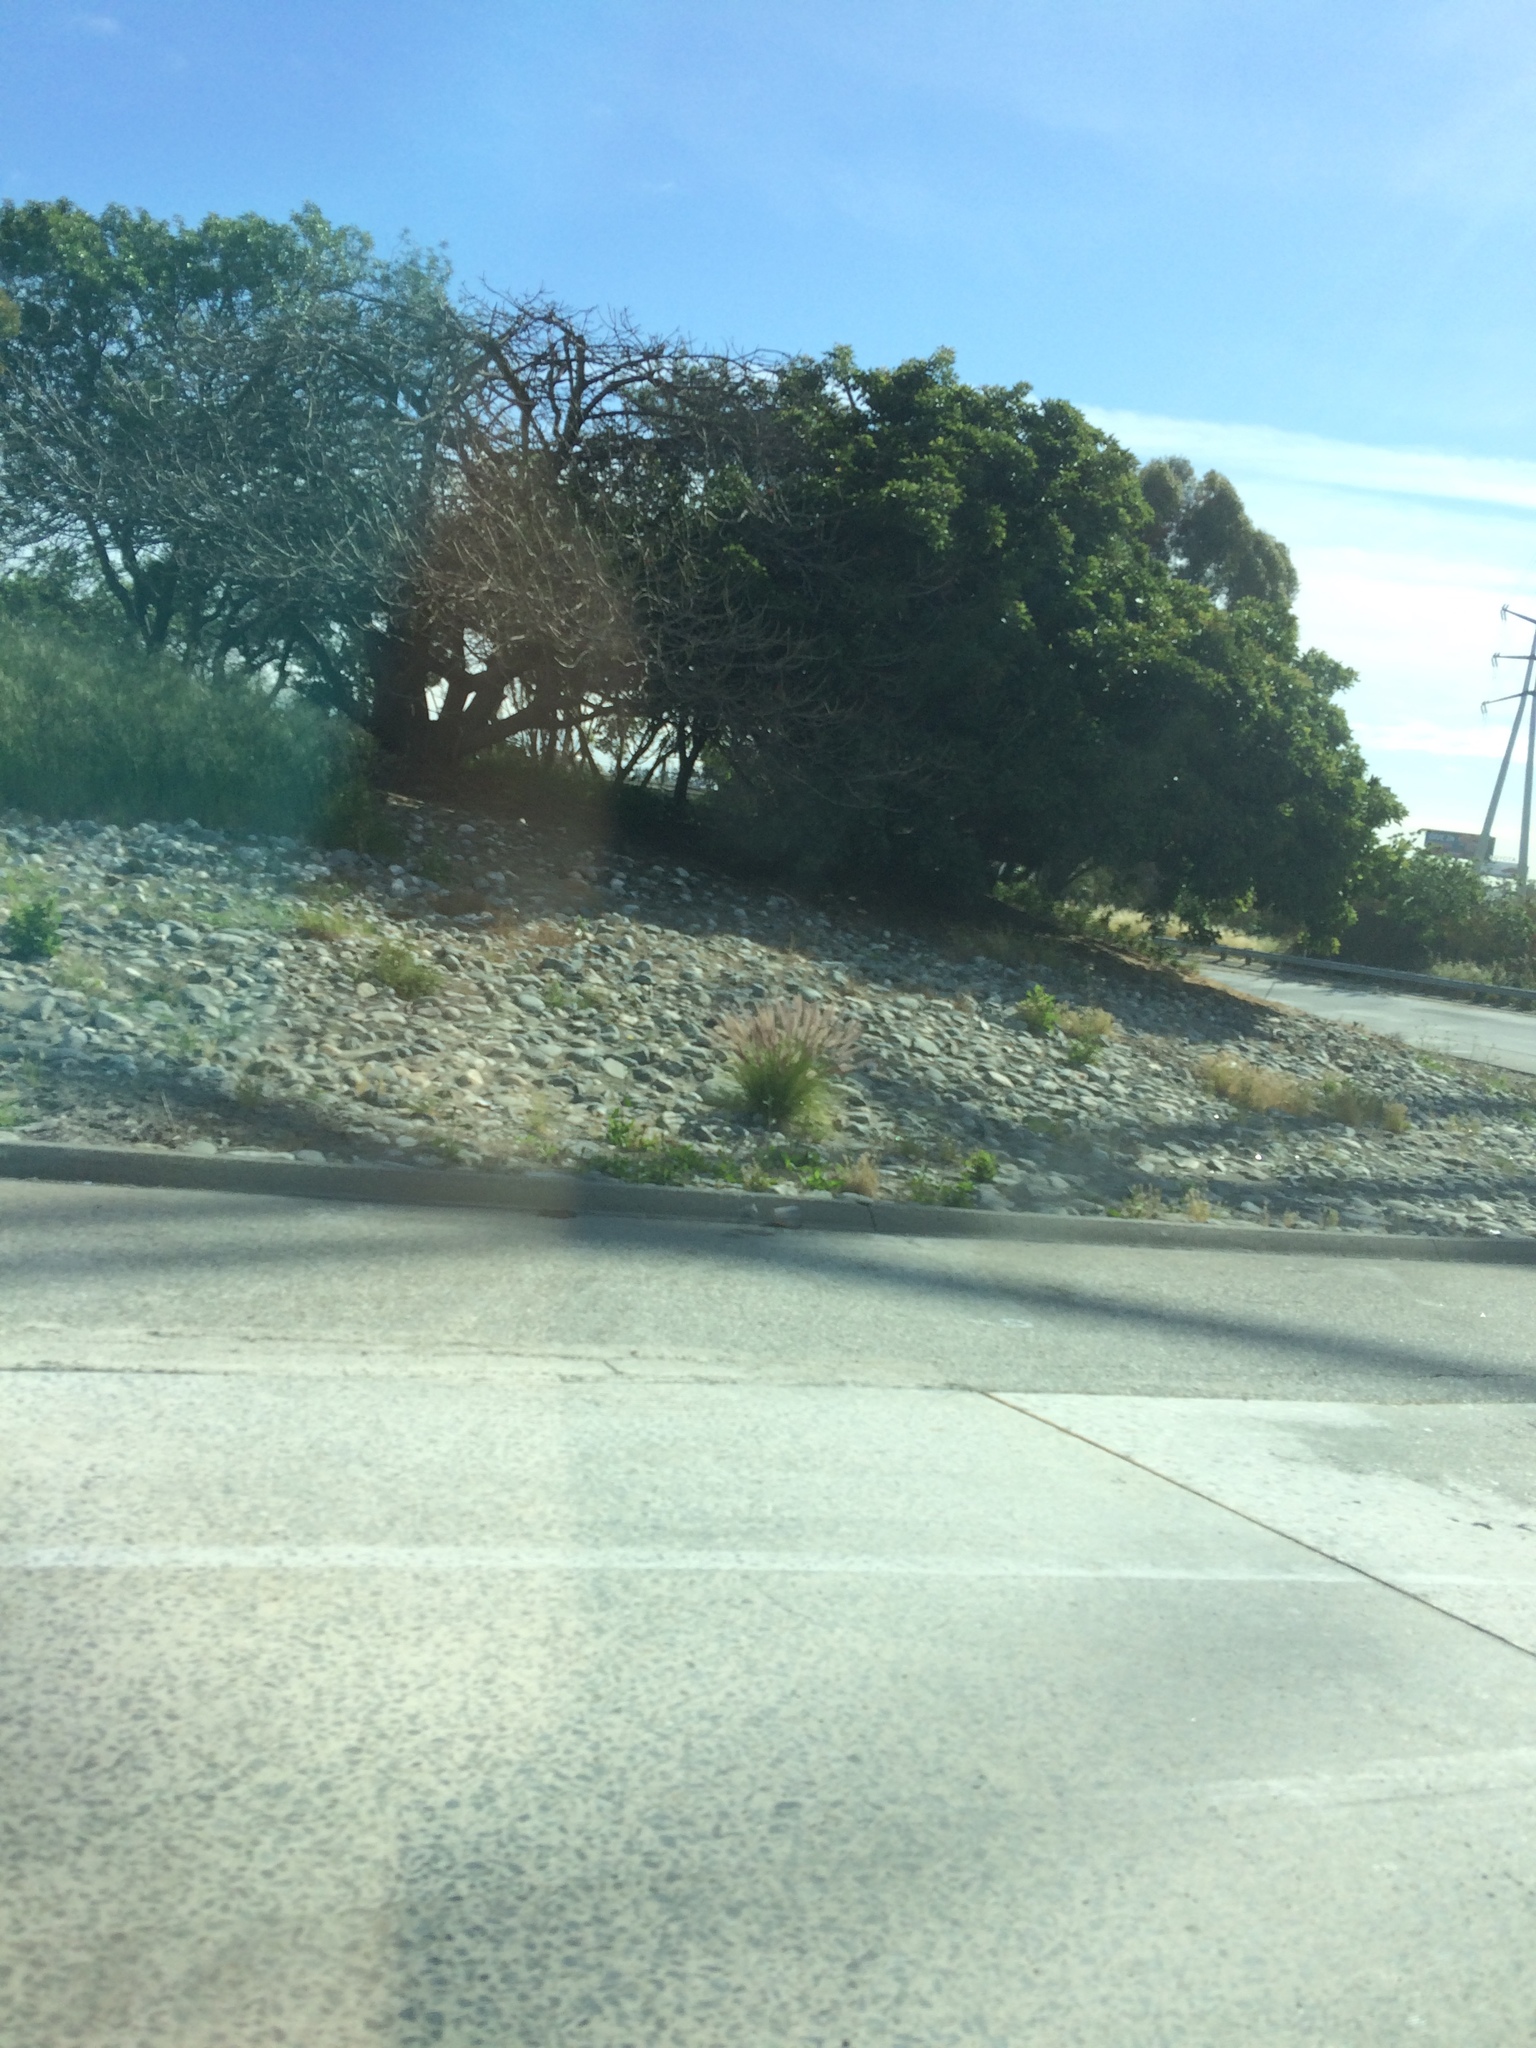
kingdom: Plantae
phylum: Tracheophyta
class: Liliopsida
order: Poales
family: Poaceae
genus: Cenchrus
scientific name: Cenchrus setaceus
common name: Crimson fountaingrass
